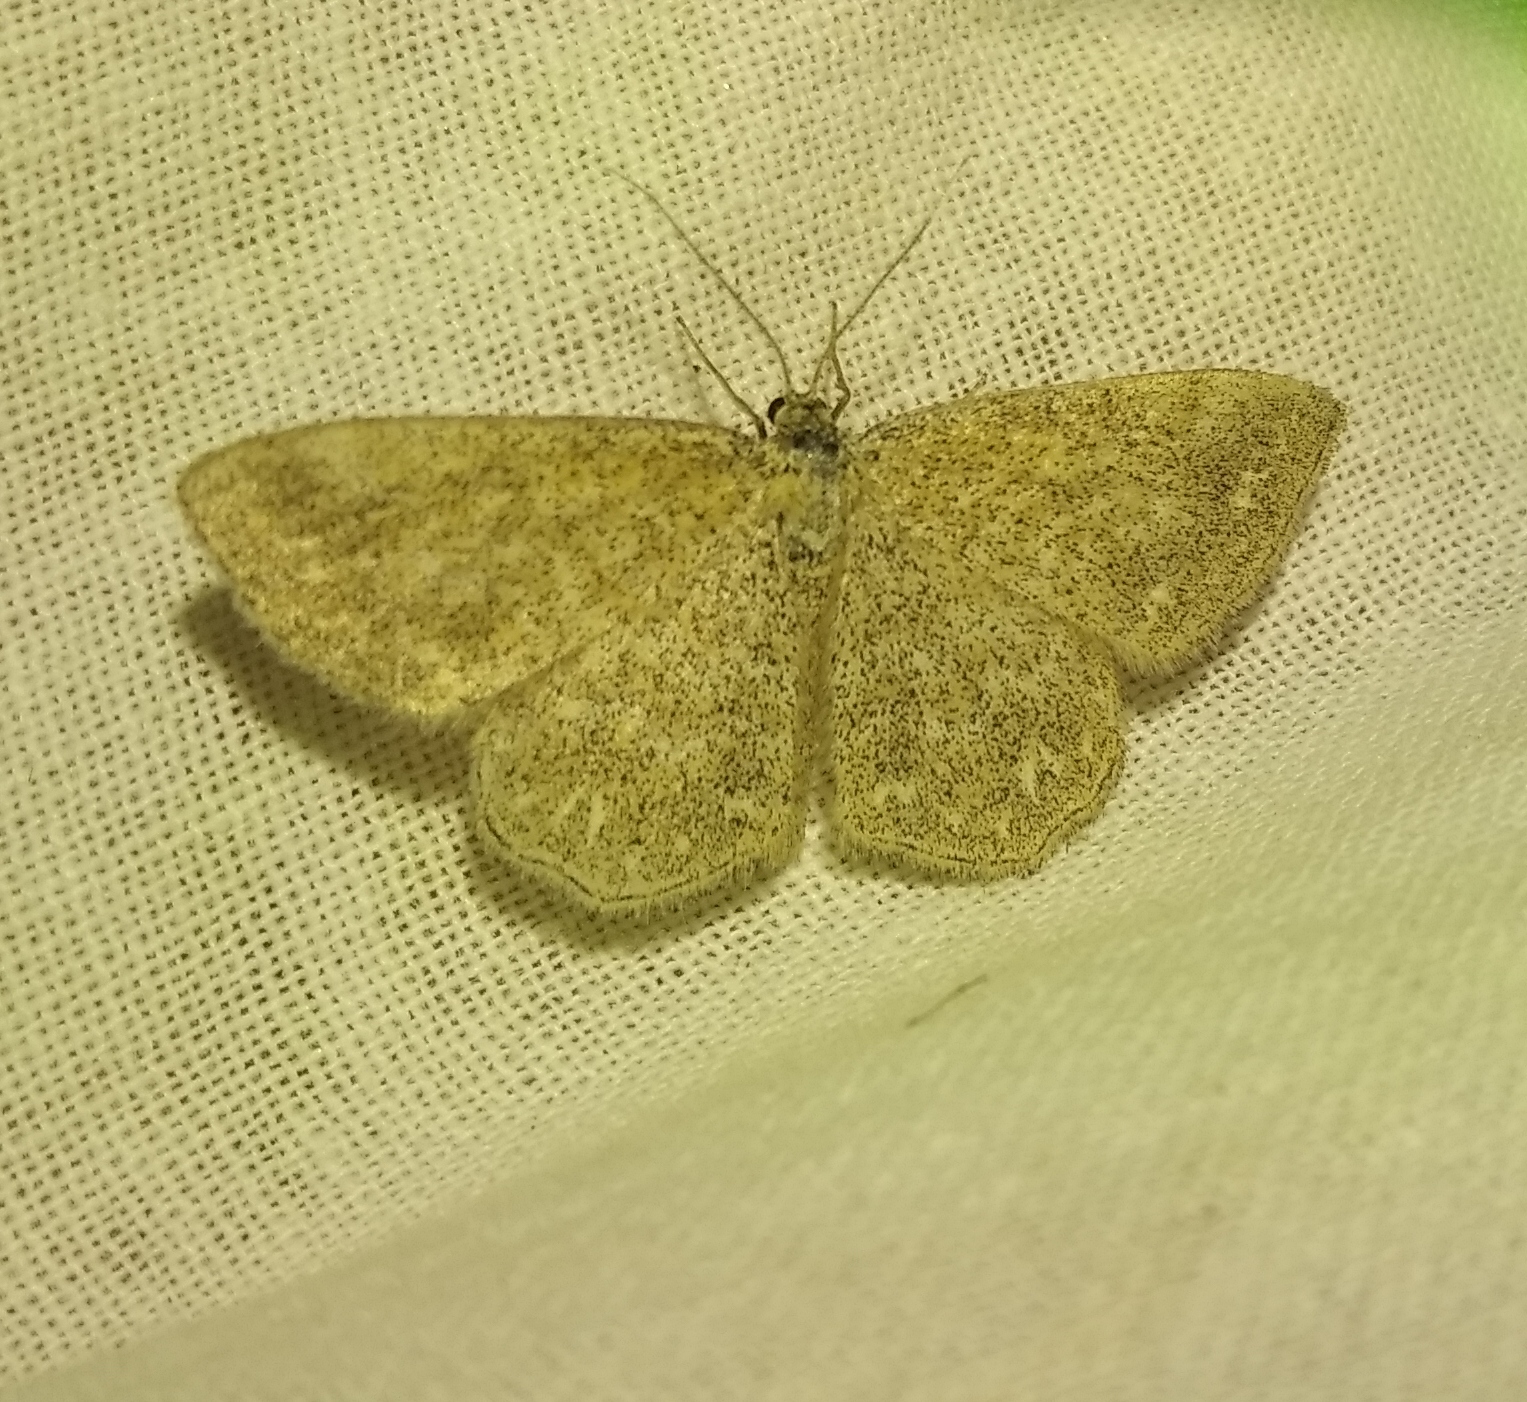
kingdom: Animalia
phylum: Arthropoda
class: Insecta
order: Lepidoptera
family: Geometridae
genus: Scopula
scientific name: Scopula immorata
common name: Lewes wave
